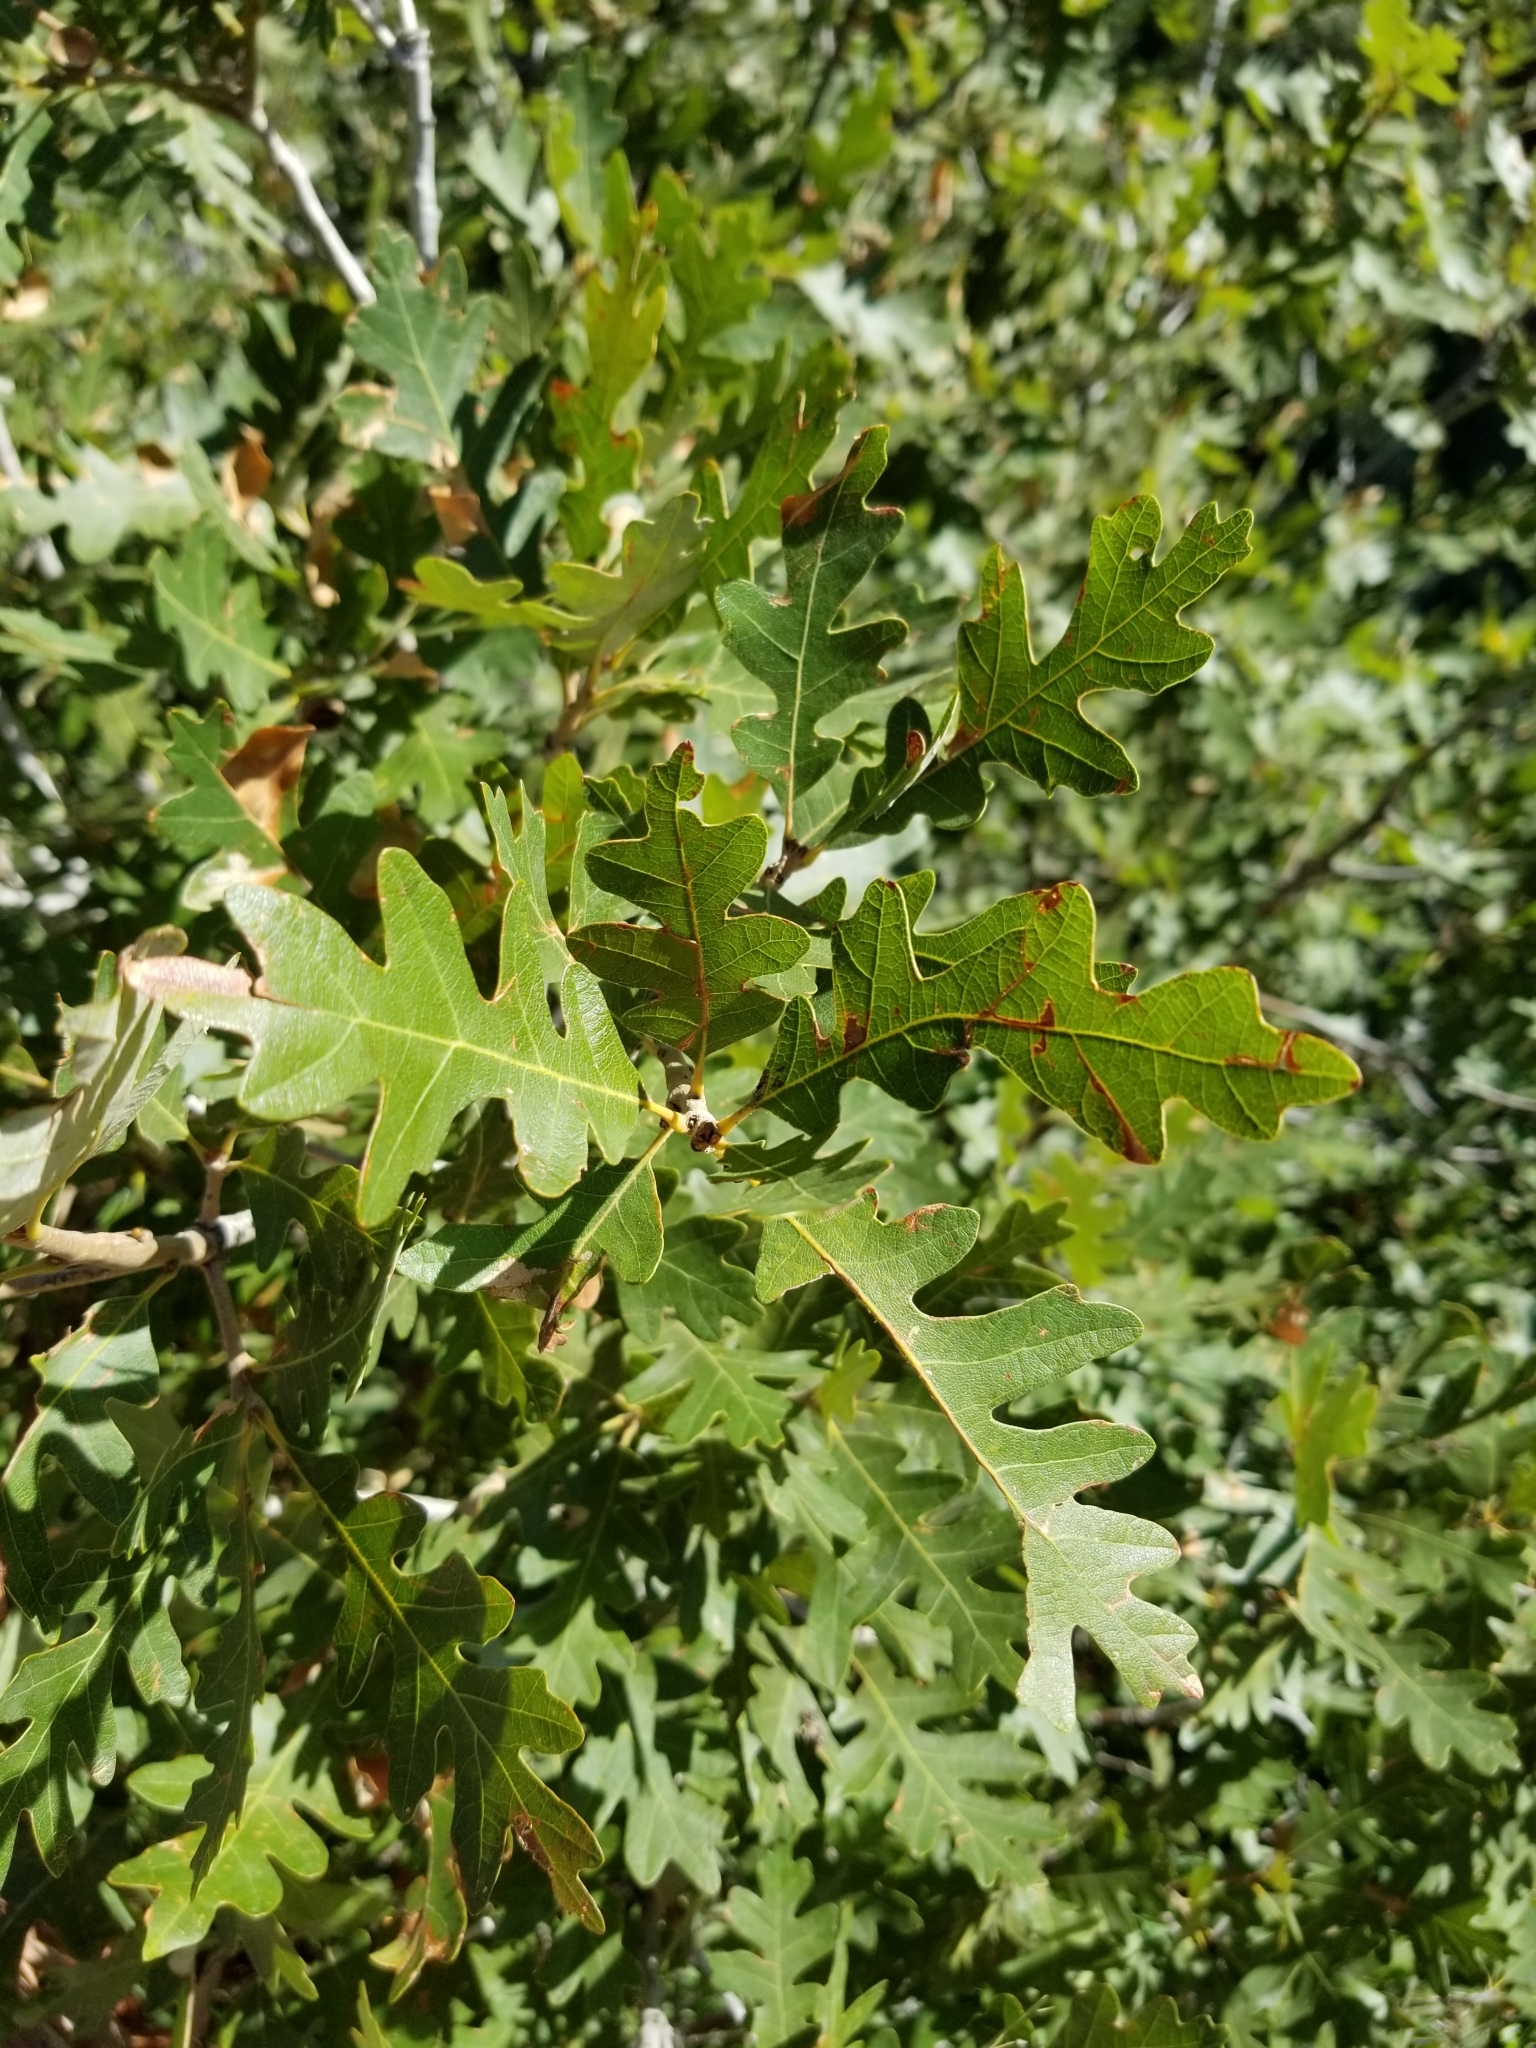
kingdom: Plantae
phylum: Tracheophyta
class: Magnoliopsida
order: Fagales
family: Fagaceae
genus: Quercus
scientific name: Quercus gambelii
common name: Gambel oak
